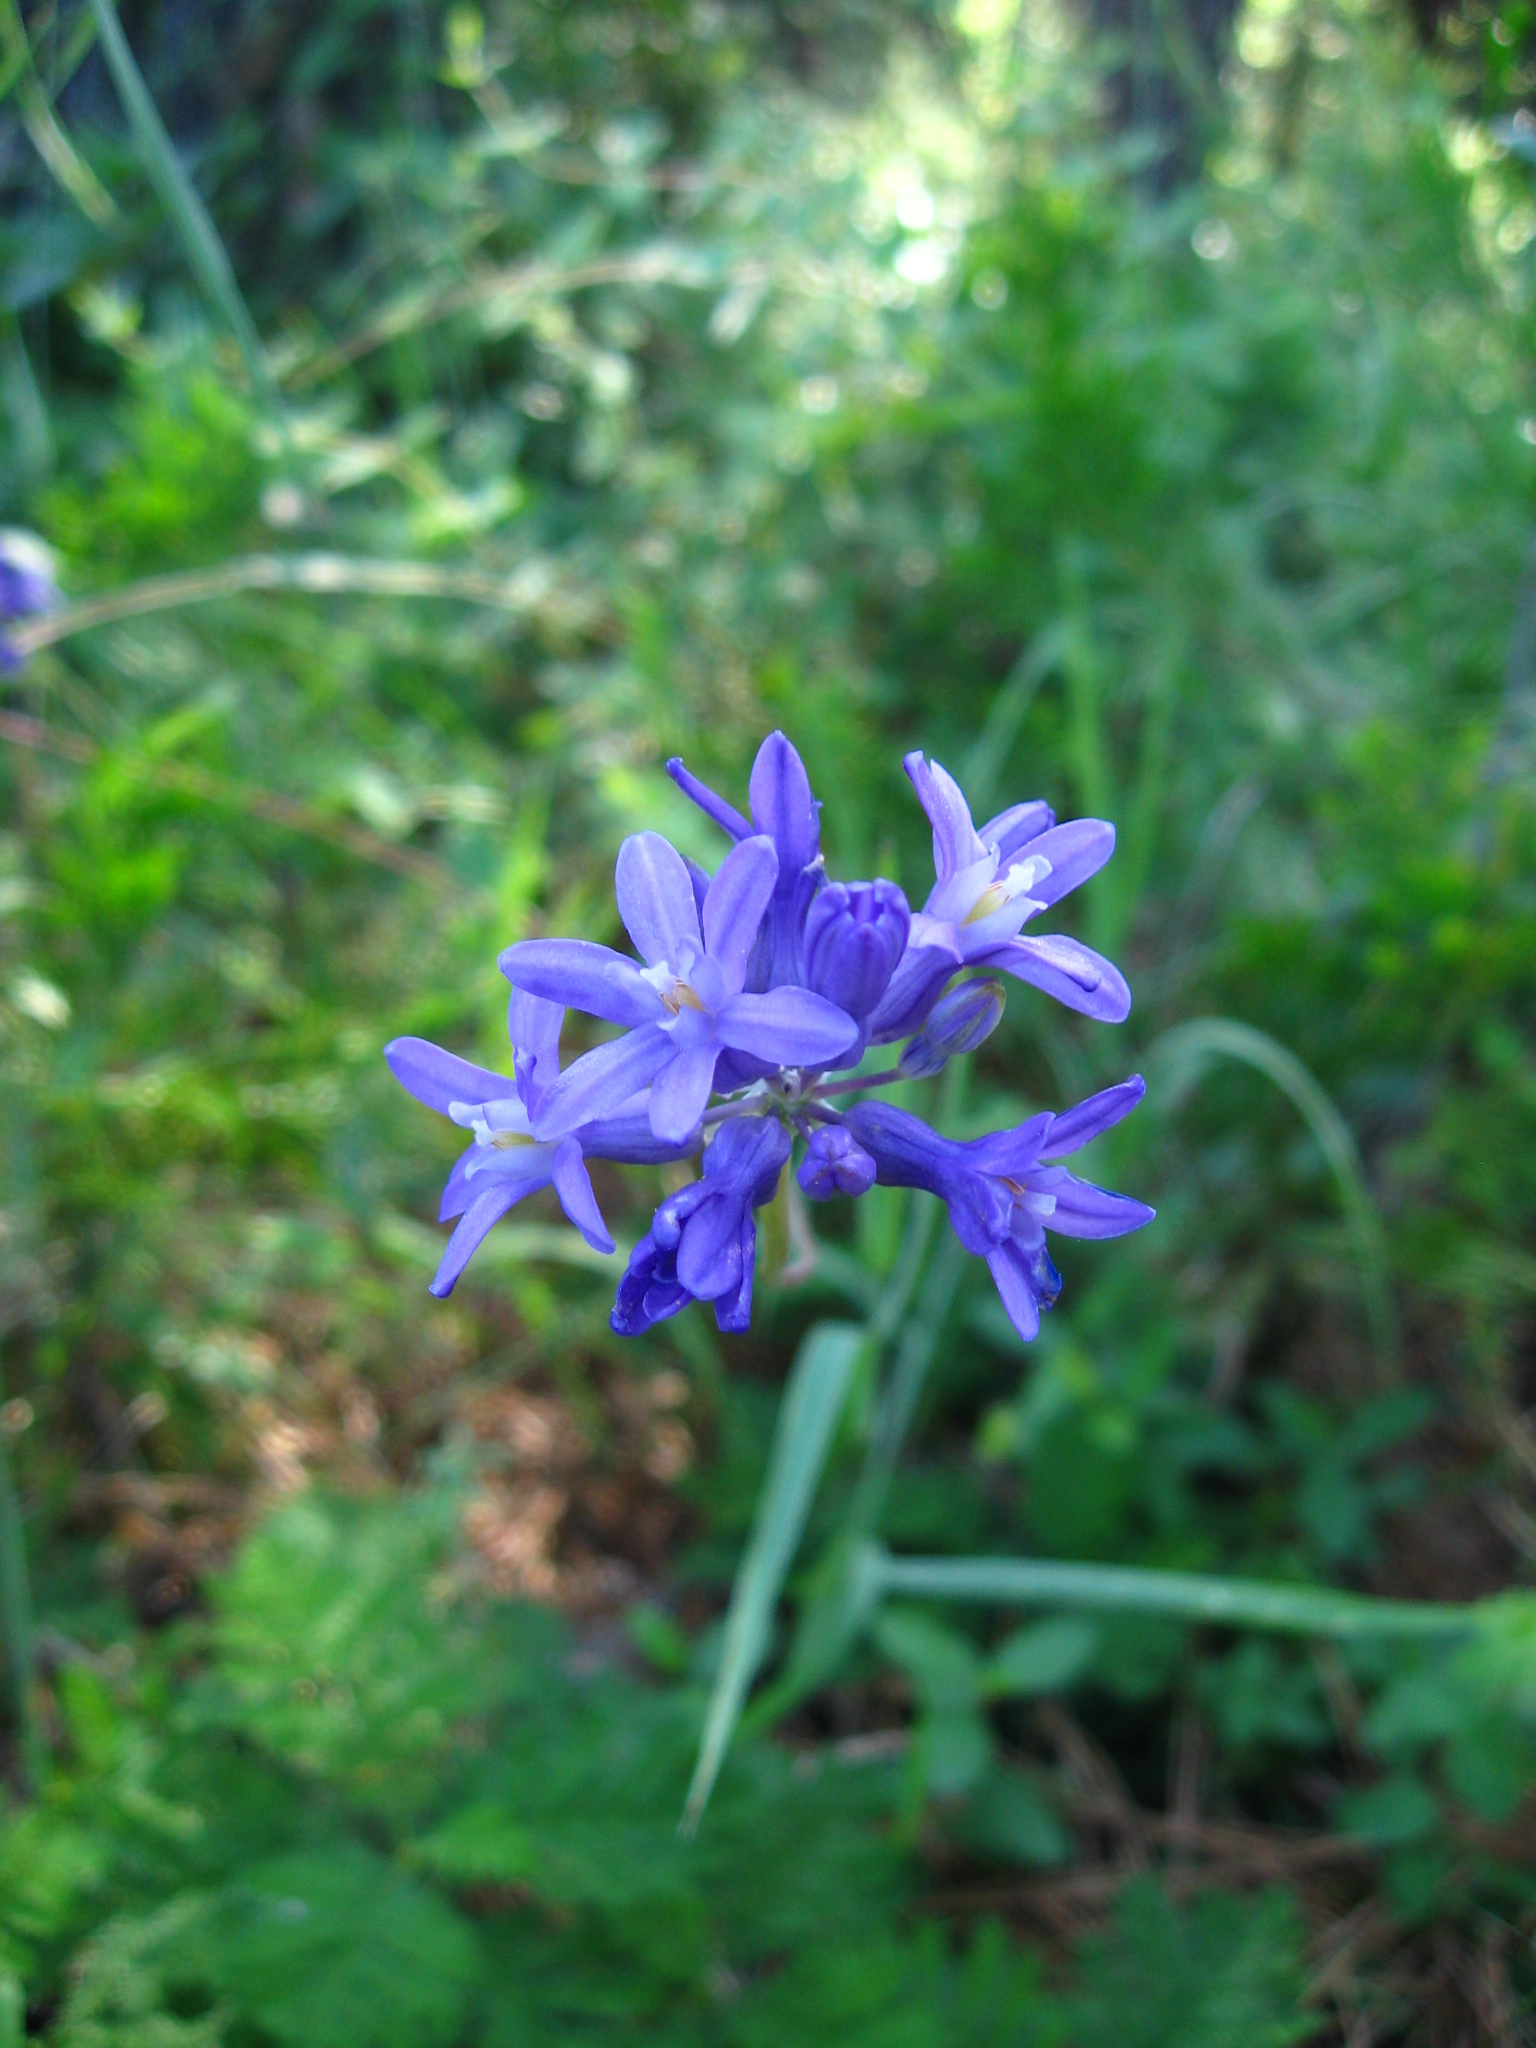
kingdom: Plantae
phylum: Tracheophyta
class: Liliopsida
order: Asparagales
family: Asparagaceae
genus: Dichelostemma
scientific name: Dichelostemma multiflorum
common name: Round-tooth ookow
